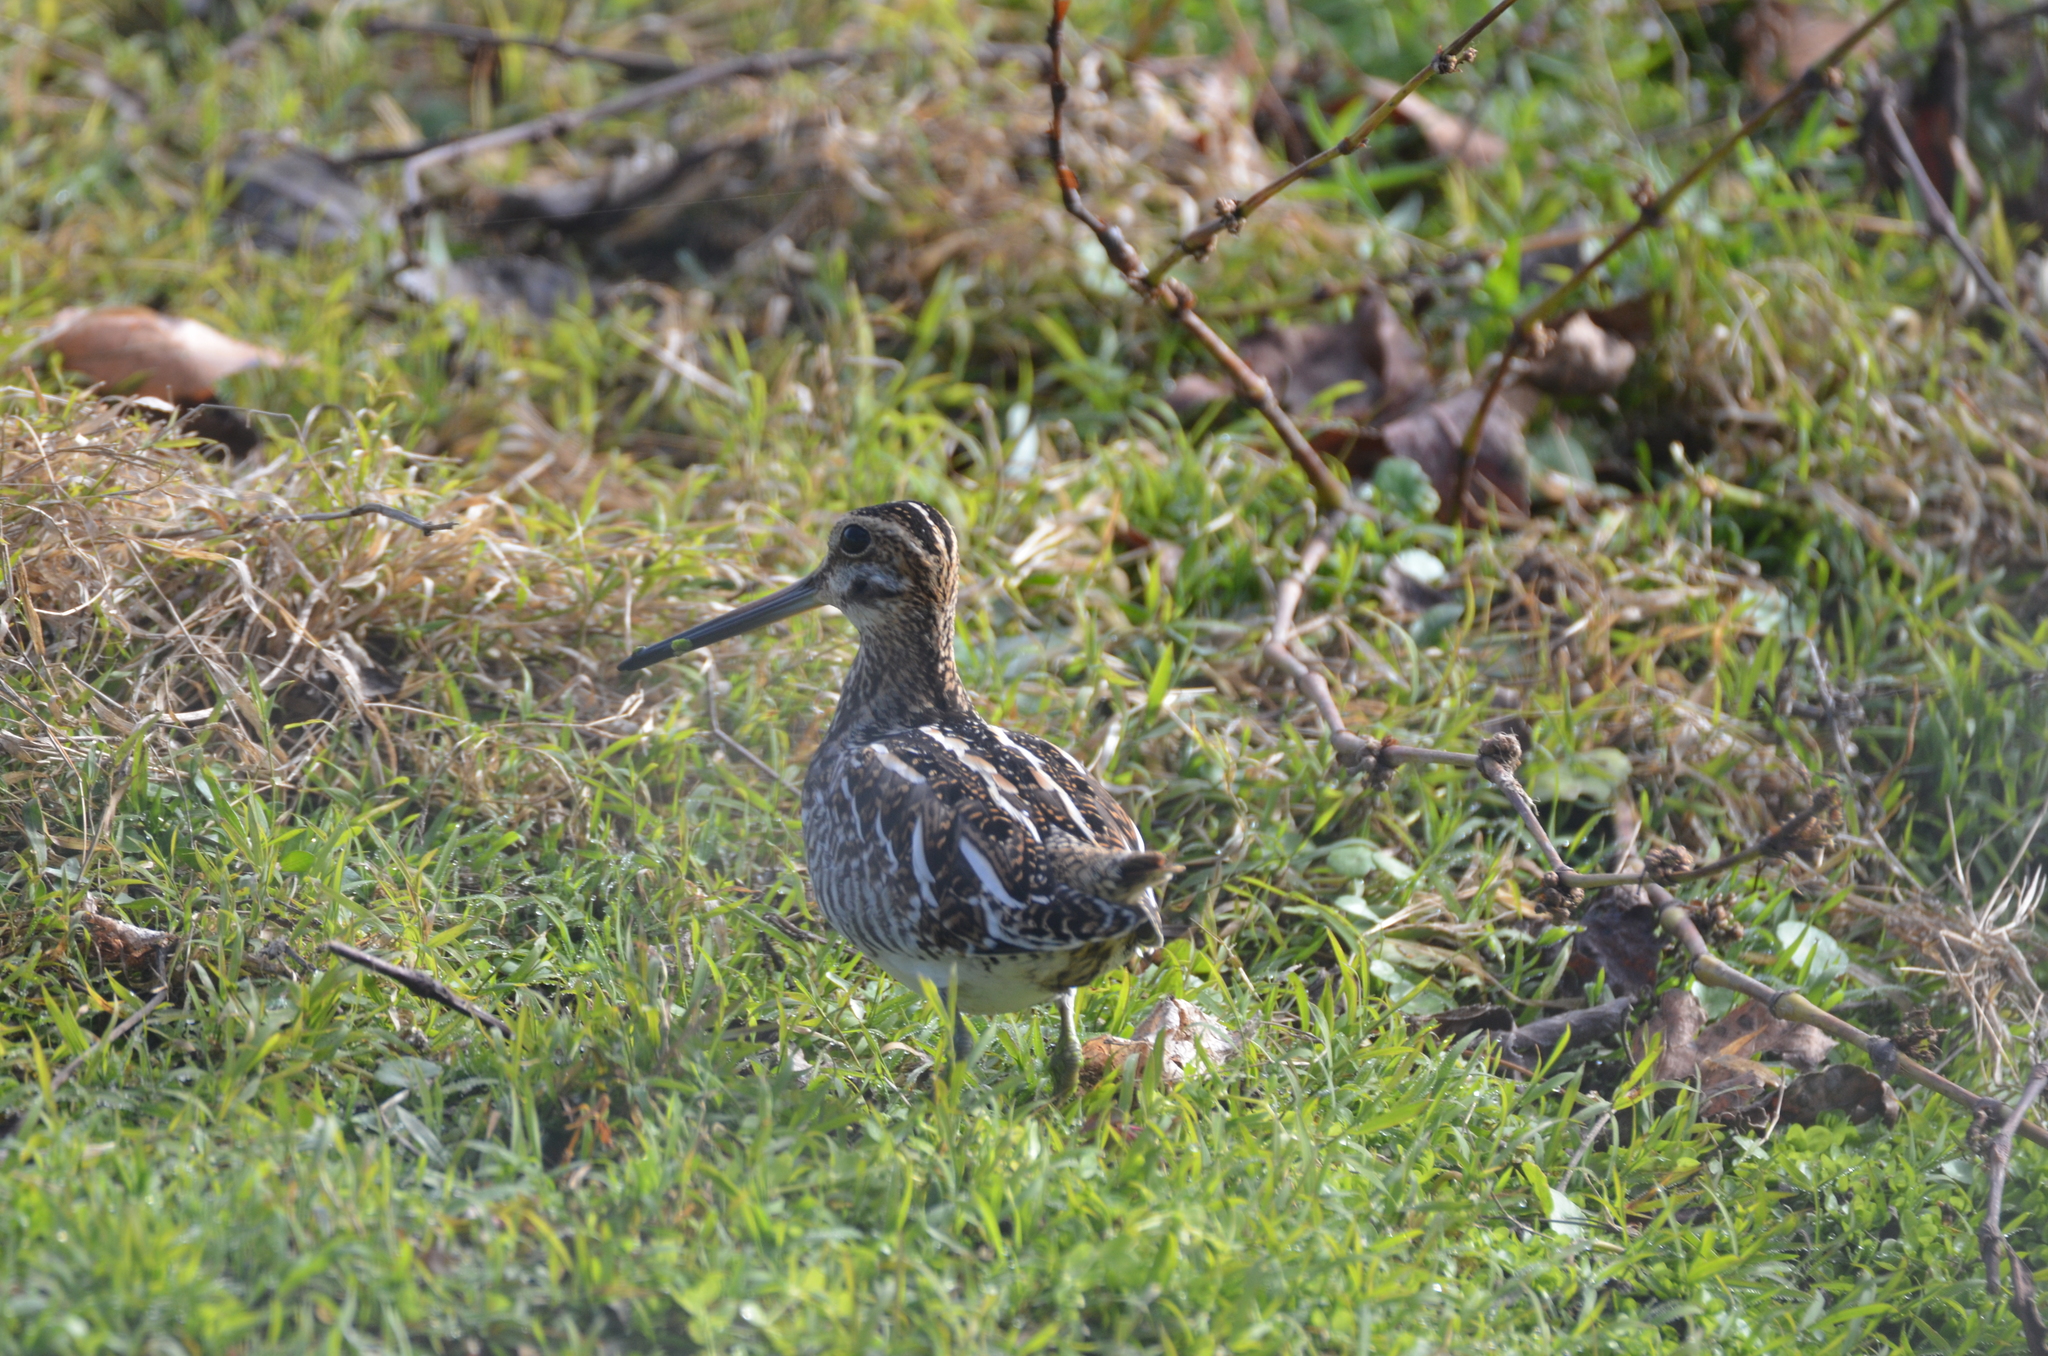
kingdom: Animalia
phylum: Chordata
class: Aves
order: Charadriiformes
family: Scolopacidae
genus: Gallinago
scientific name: Gallinago delicata
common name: Wilson's snipe
